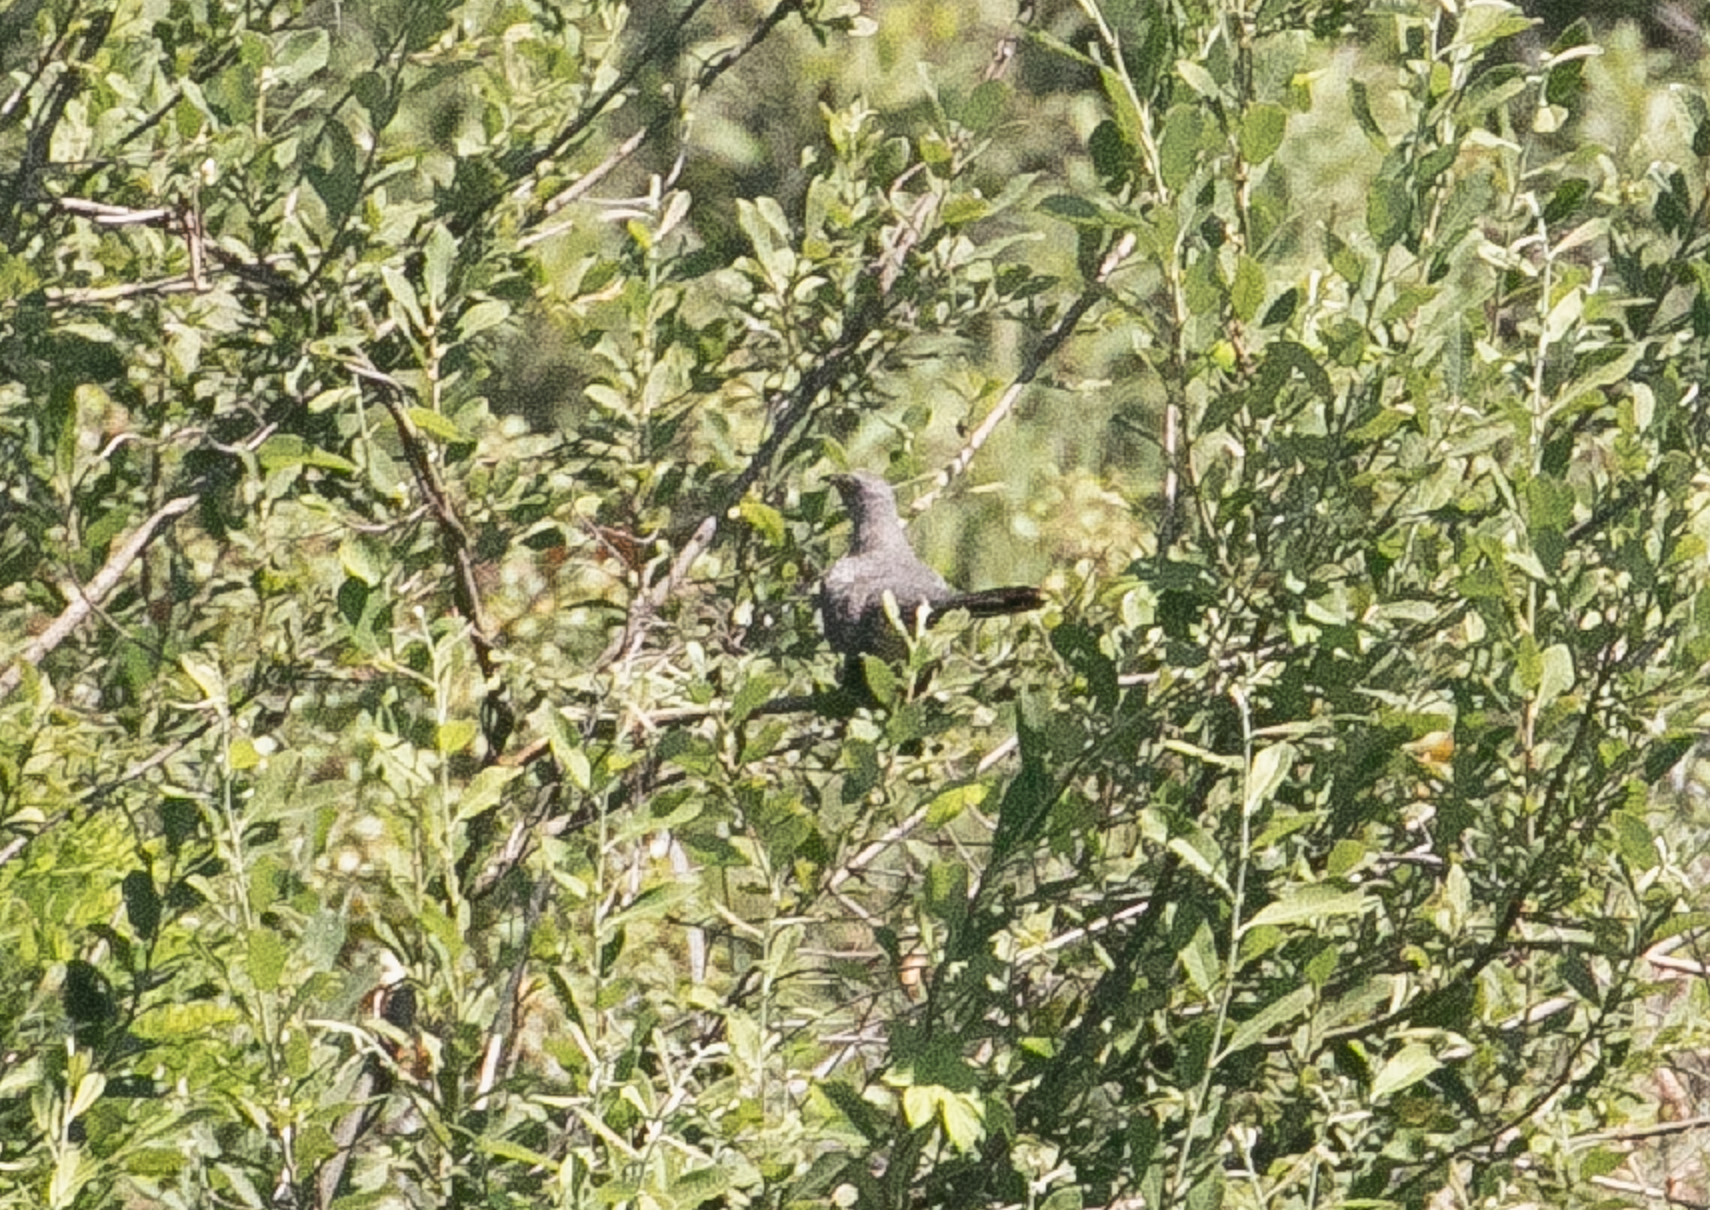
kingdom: Animalia
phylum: Chordata
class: Aves
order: Cuculiformes
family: Cuculidae
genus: Cuculus
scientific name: Cuculus canorus
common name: Common cuckoo
